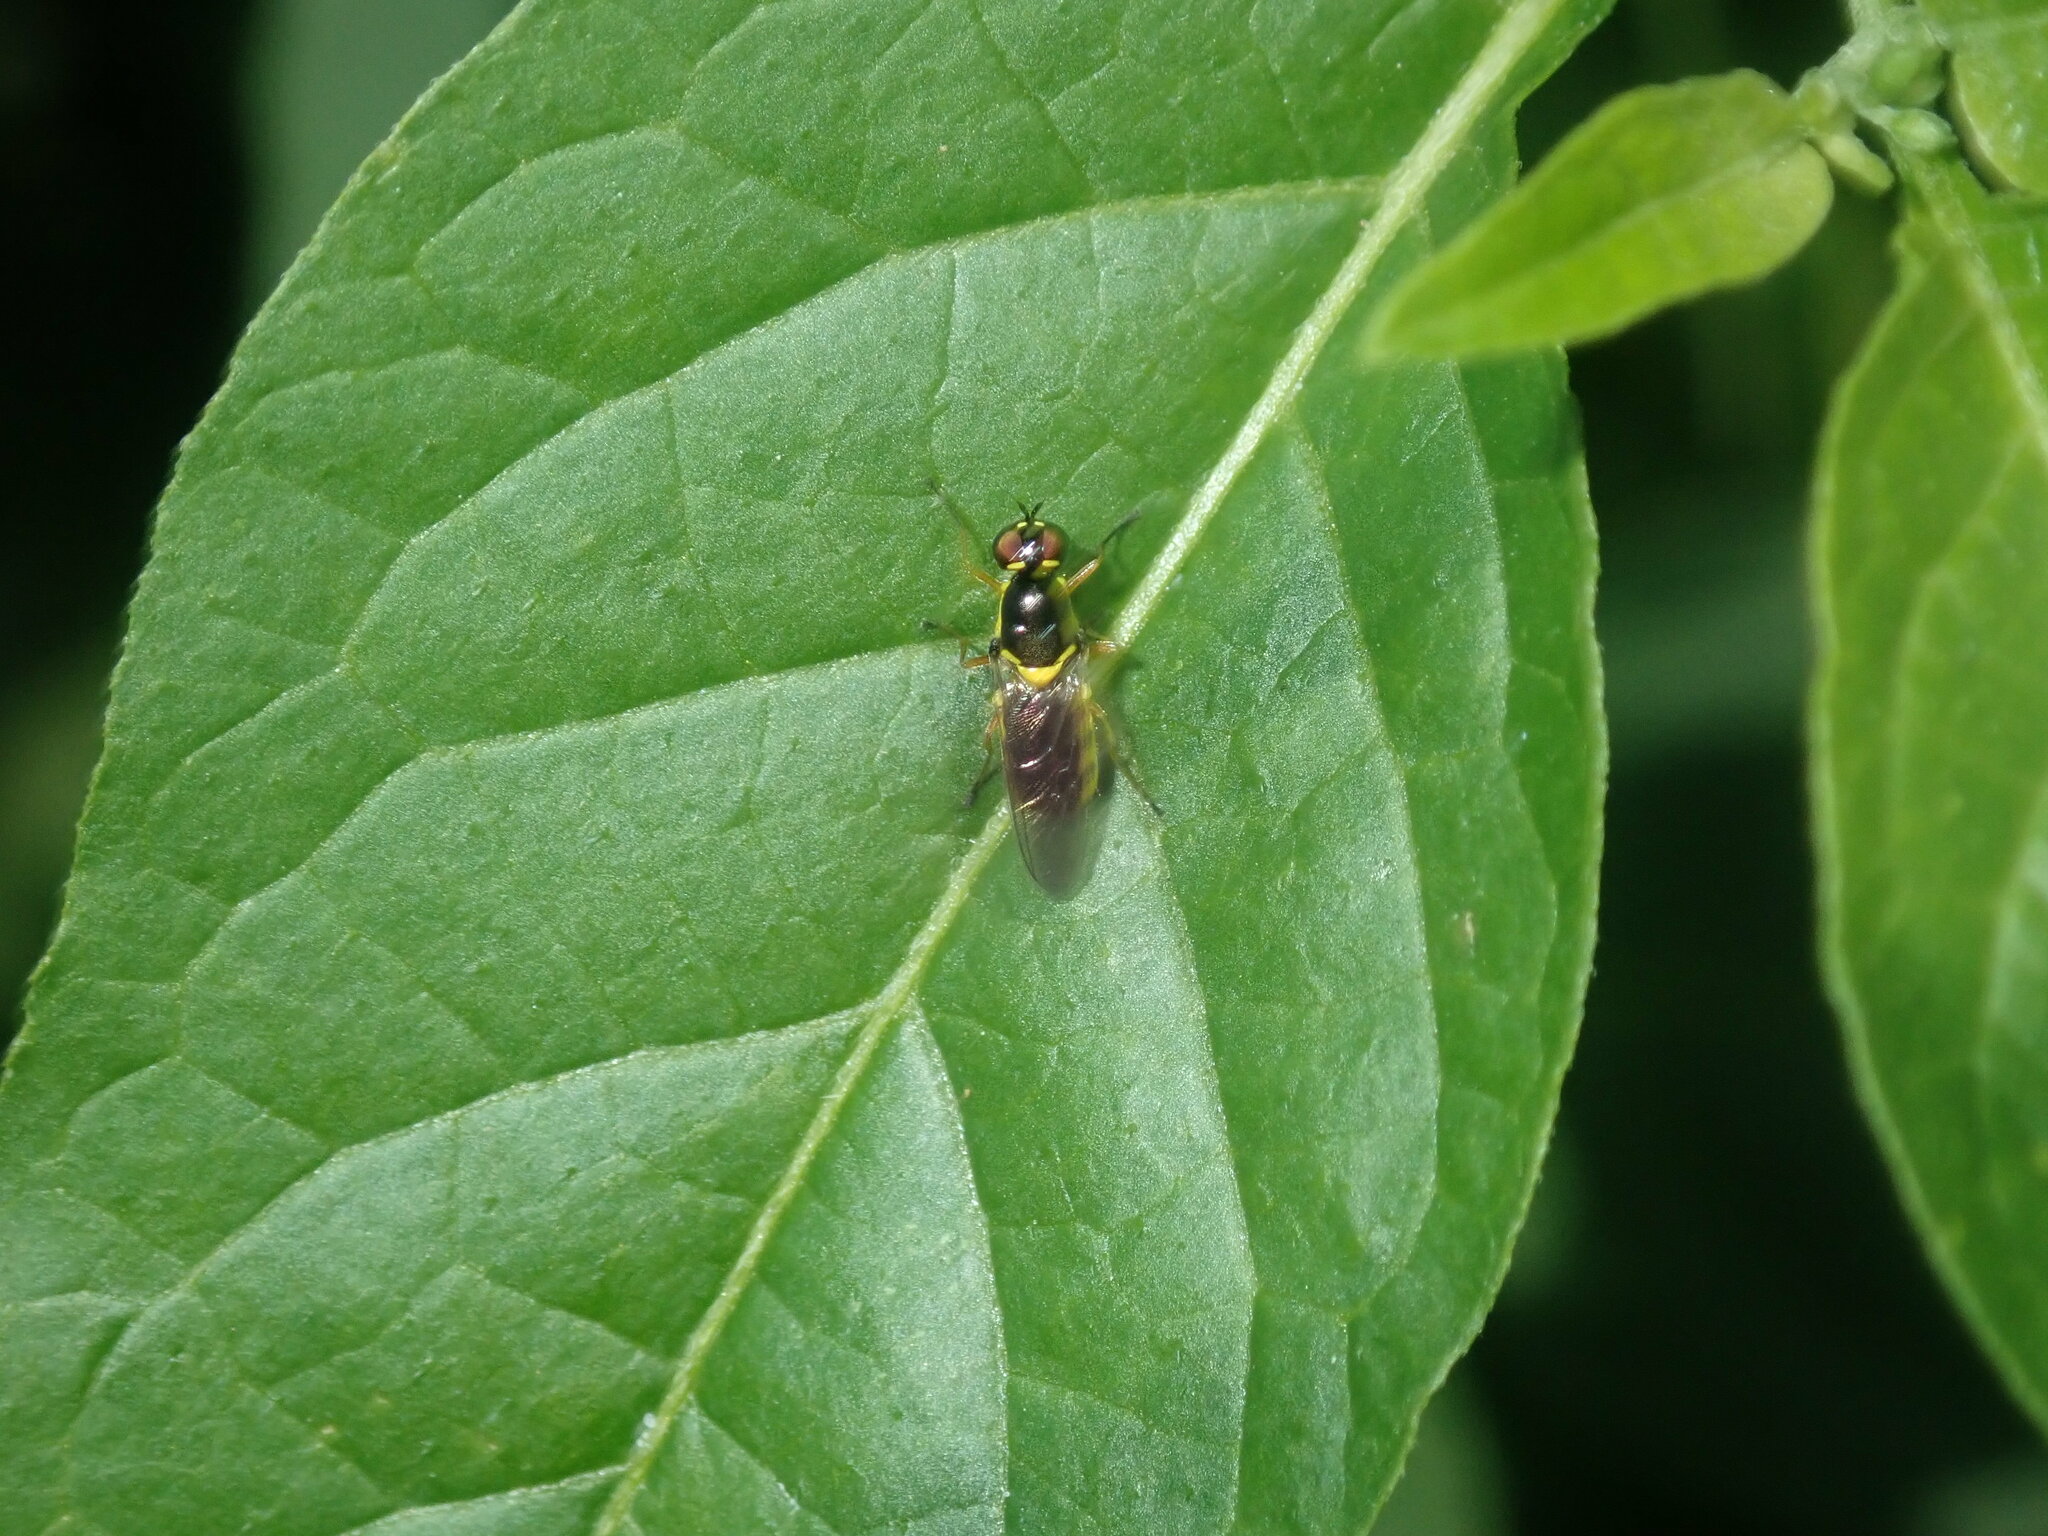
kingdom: Animalia
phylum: Arthropoda
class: Insecta
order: Diptera
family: Stratiomyidae
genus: Acanthasargus
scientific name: Acanthasargus flavipes
